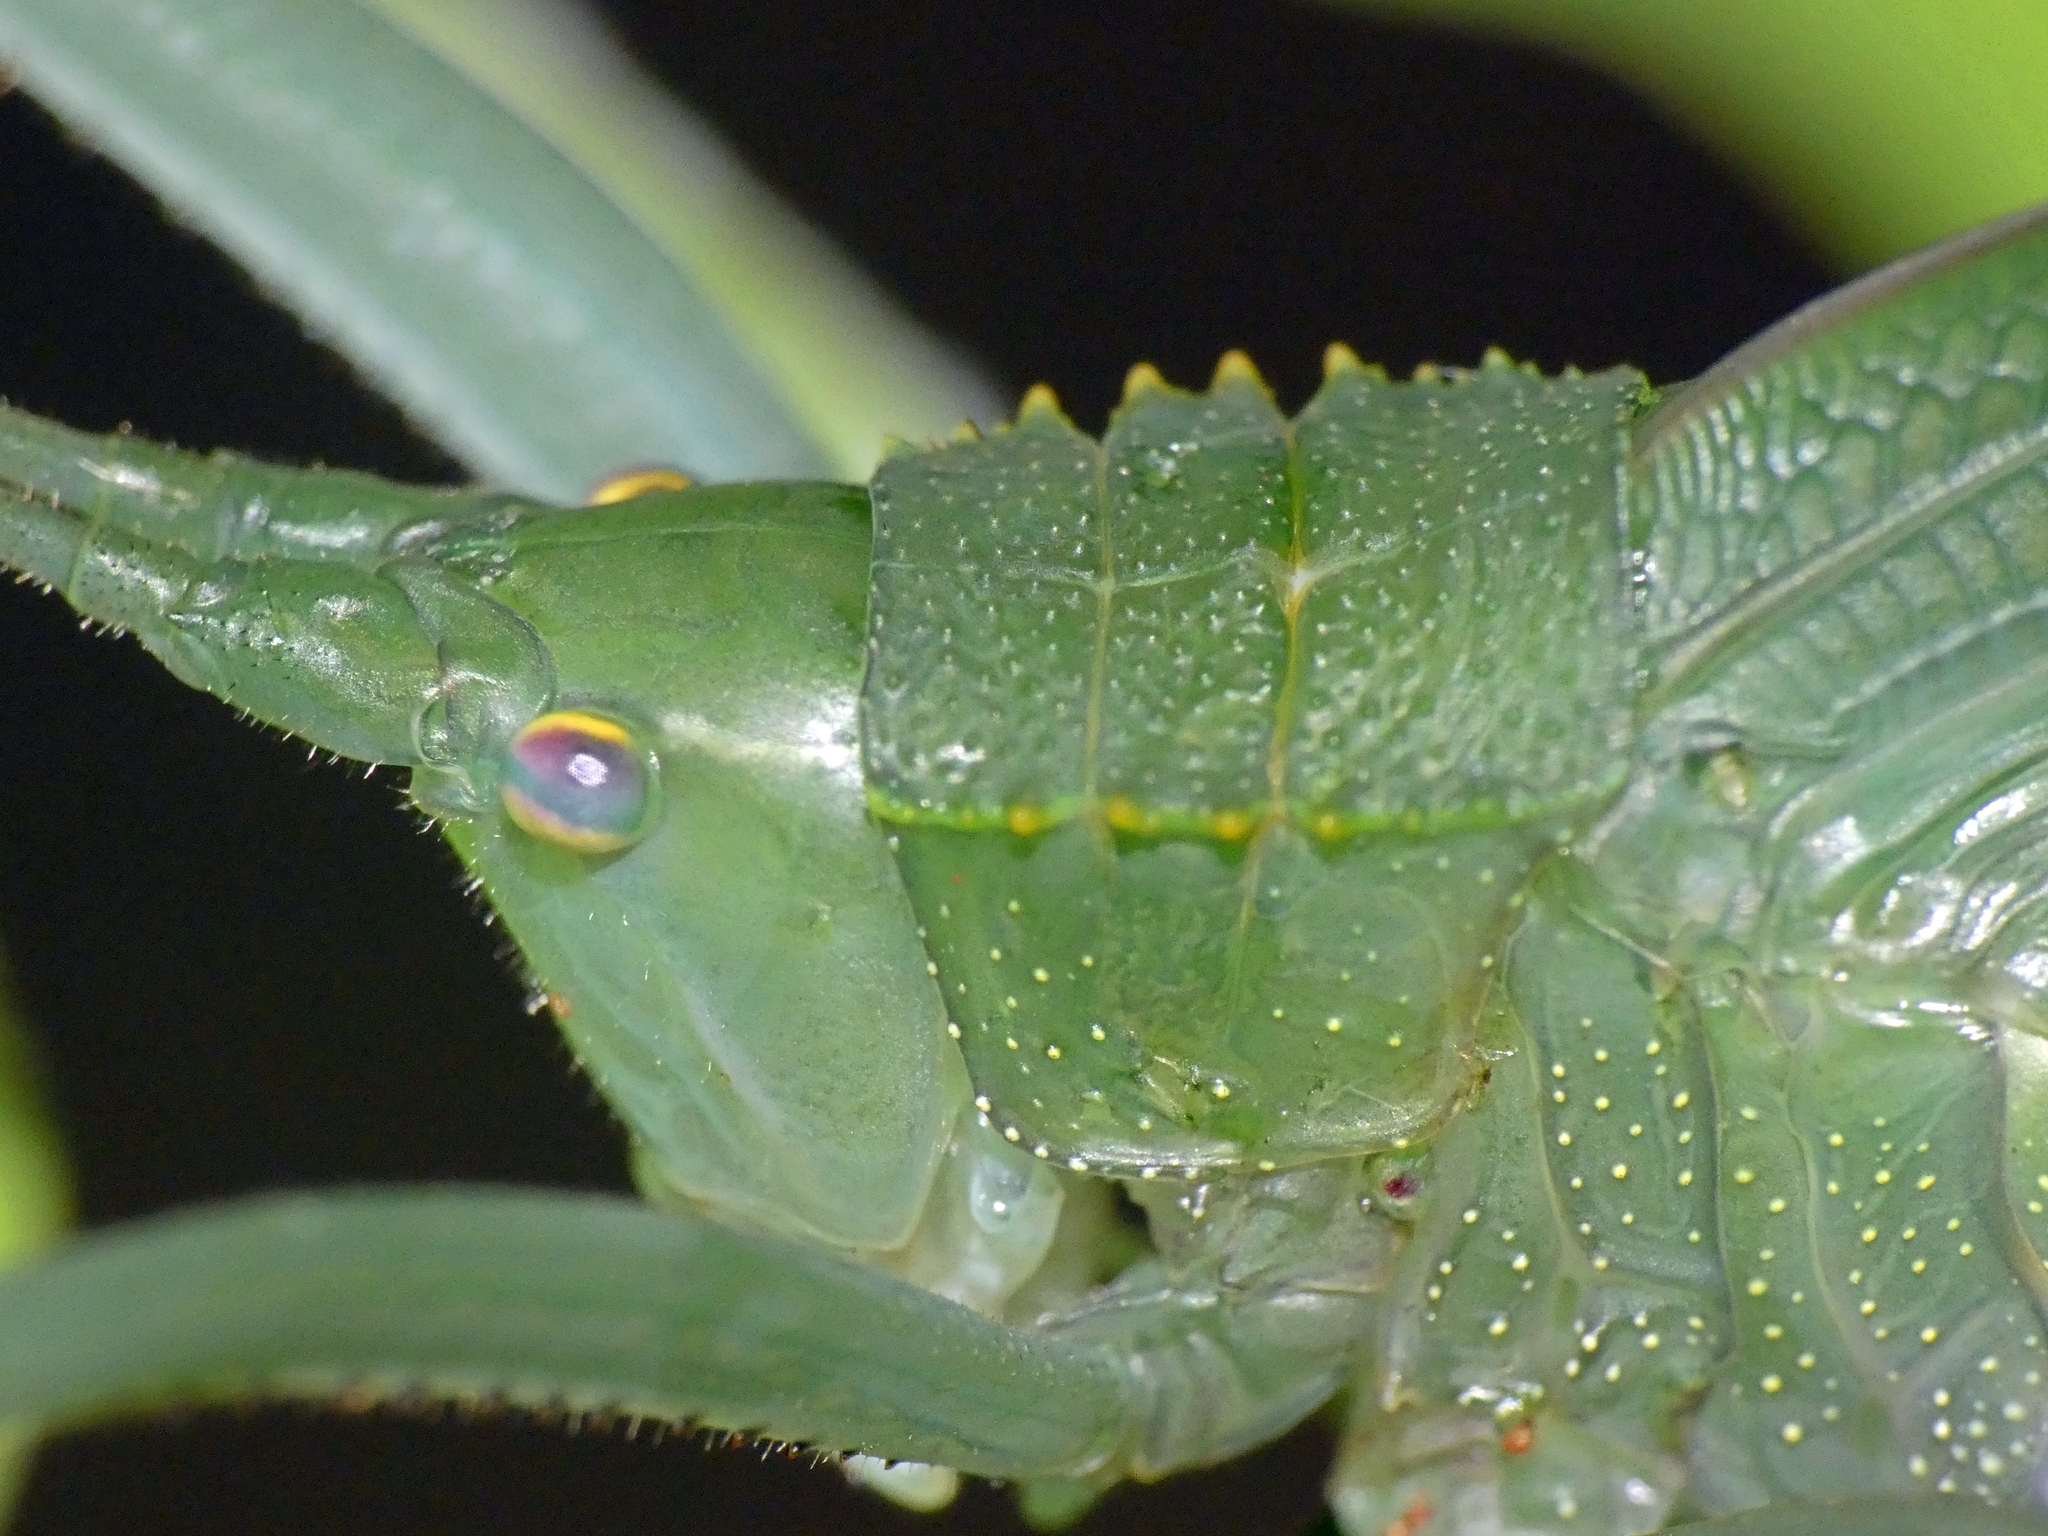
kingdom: Animalia
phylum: Arthropoda
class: Insecta
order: Orthoptera
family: Tettigoniidae
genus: Mastighaphoides
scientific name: Mastighaphoides tuberculatus
